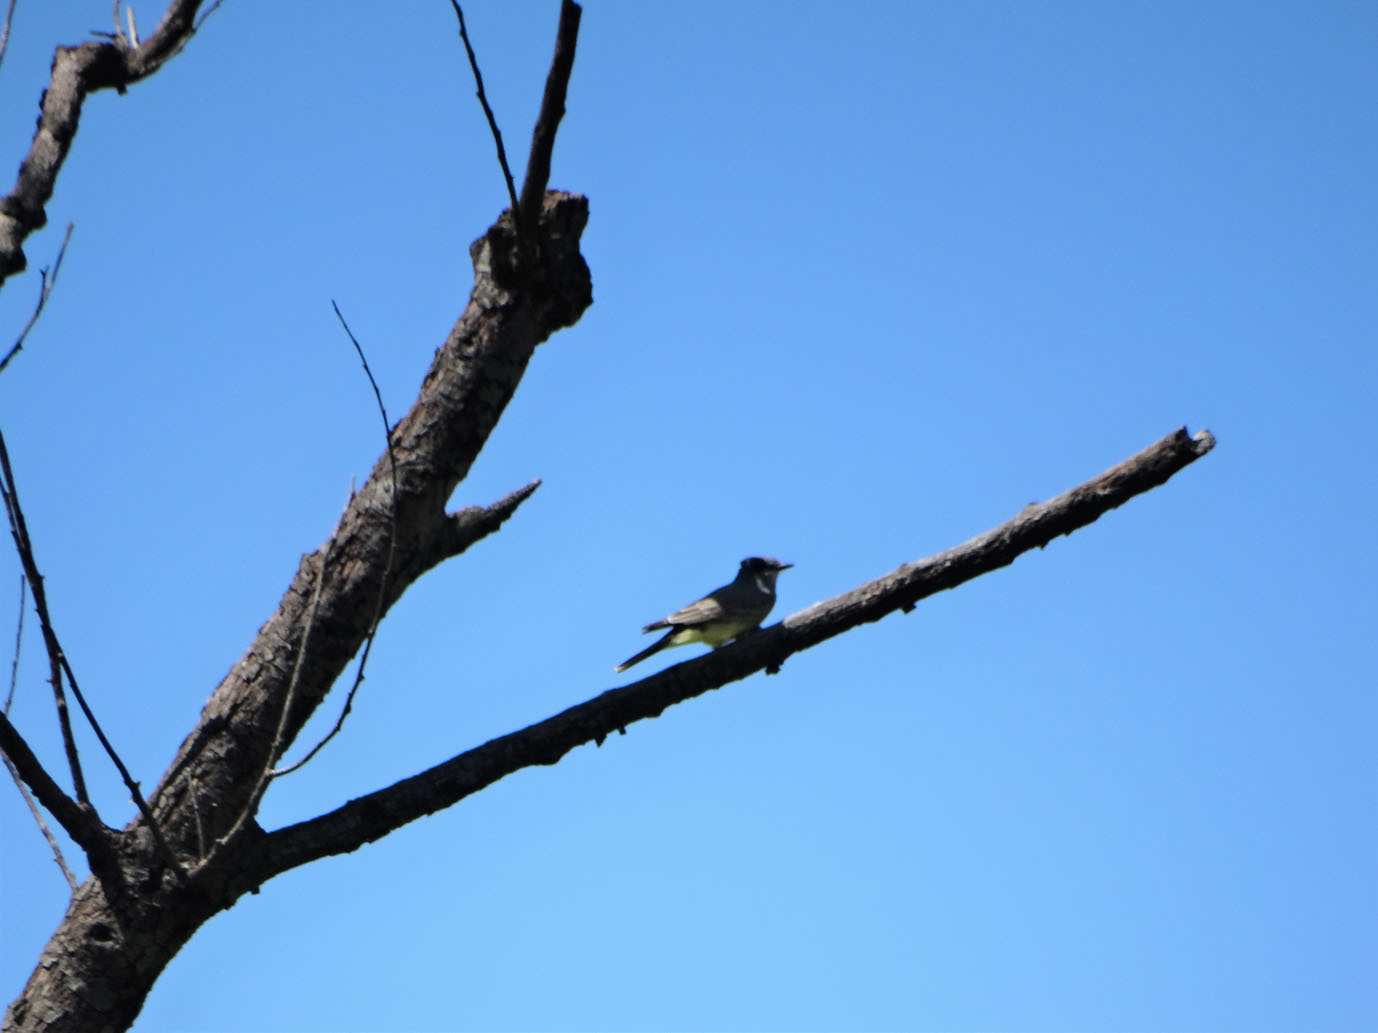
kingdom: Animalia
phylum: Chordata
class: Aves
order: Passeriformes
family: Tyrannidae
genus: Tyrannus
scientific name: Tyrannus vociferans
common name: Cassin's kingbird
